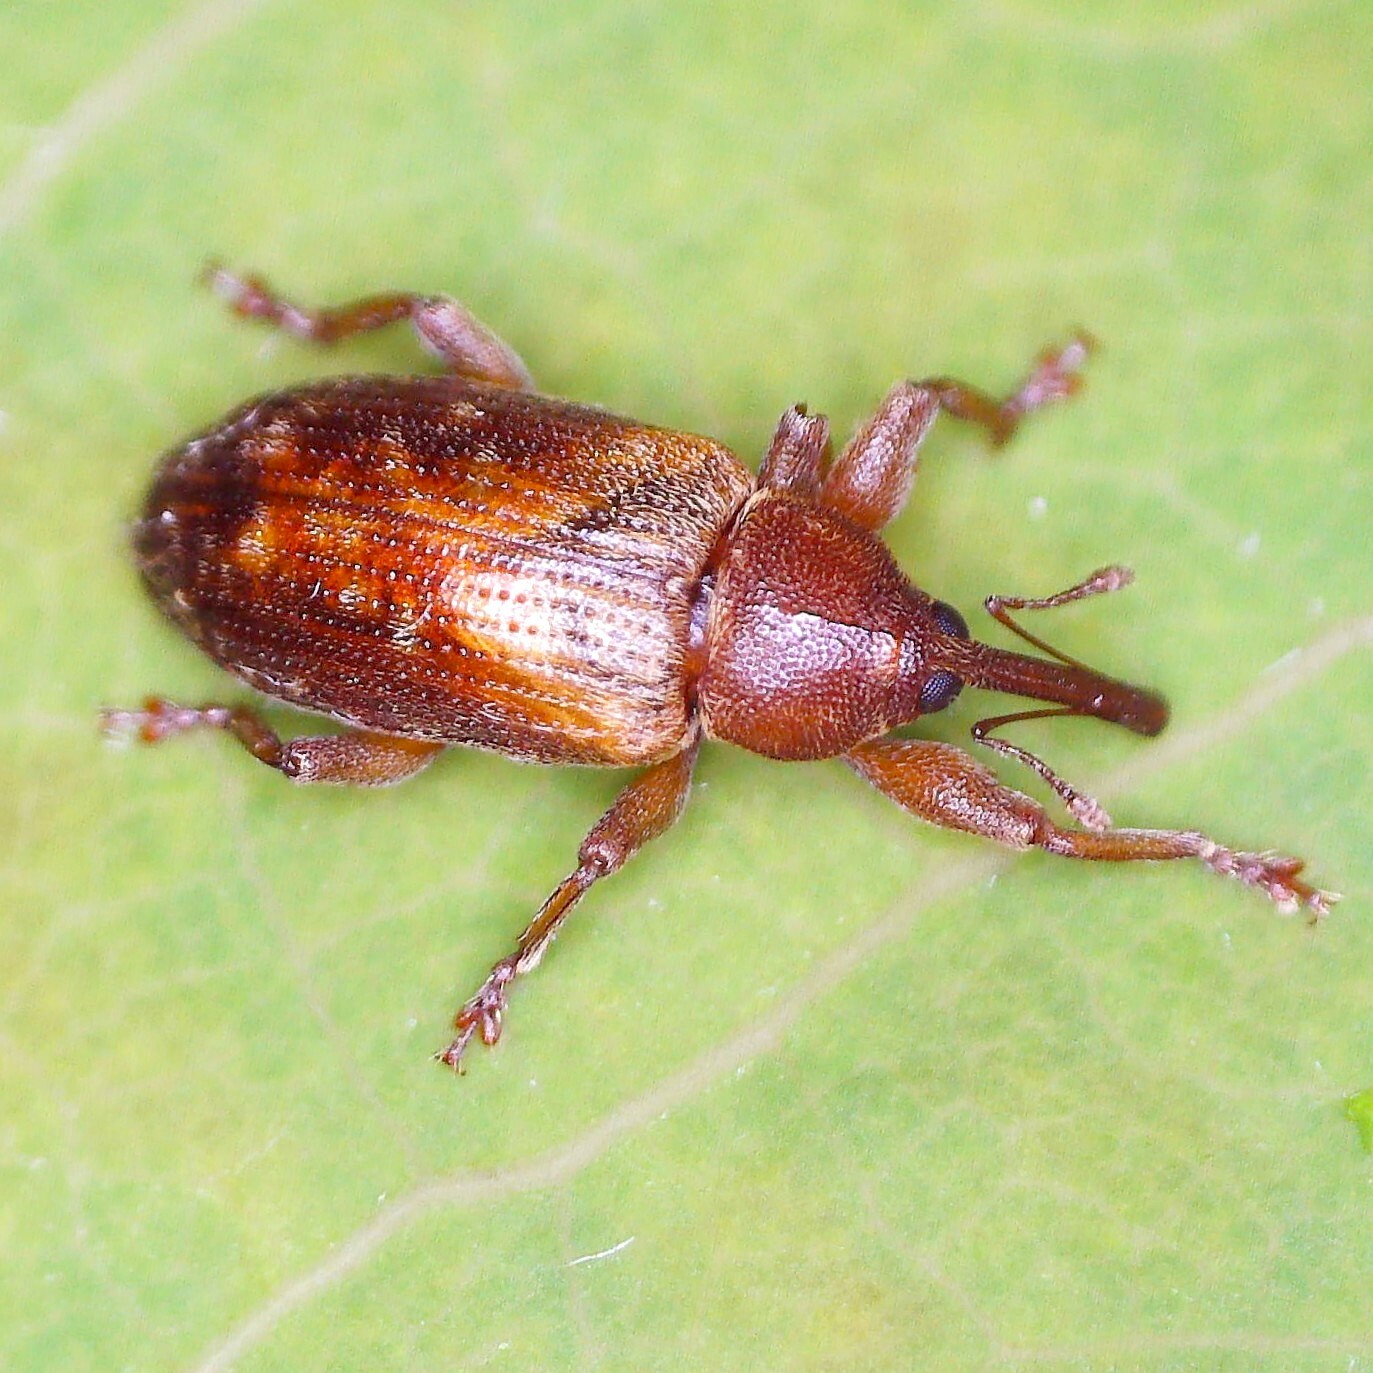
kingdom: Animalia
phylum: Arthropoda
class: Insecta
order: Coleoptera
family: Curculionidae
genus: Dorytomus
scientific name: Dorytomus tortrix
